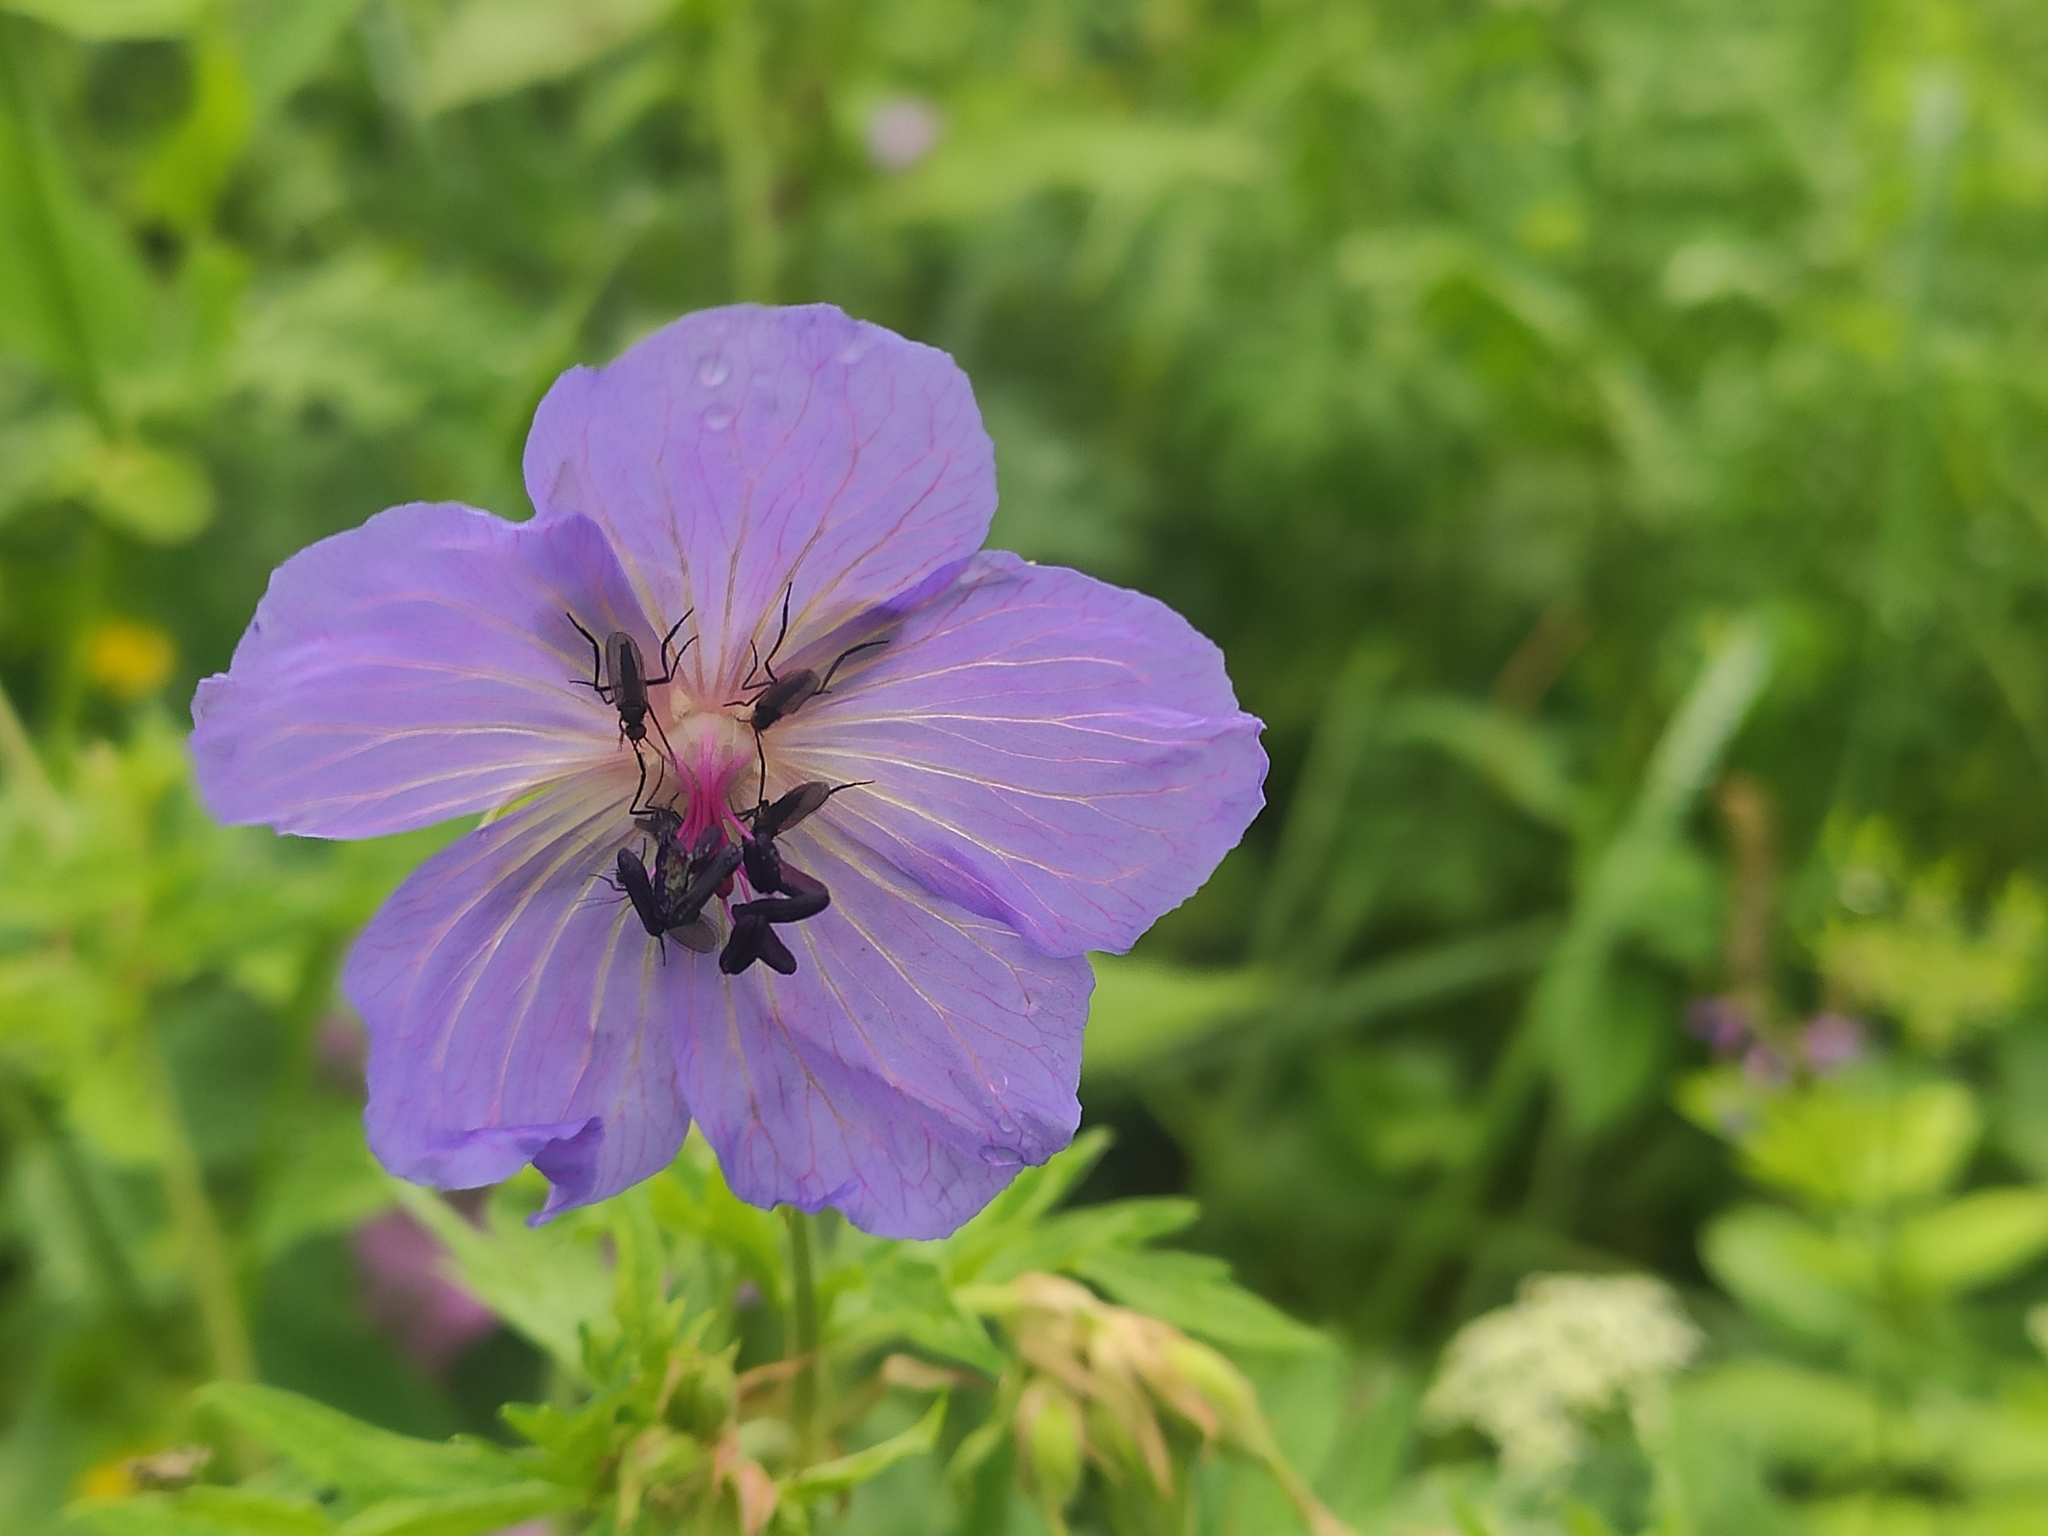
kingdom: Plantae
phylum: Tracheophyta
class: Magnoliopsida
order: Geraniales
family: Geraniaceae
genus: Geranium
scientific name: Geranium pratense
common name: Meadow crane's-bill
